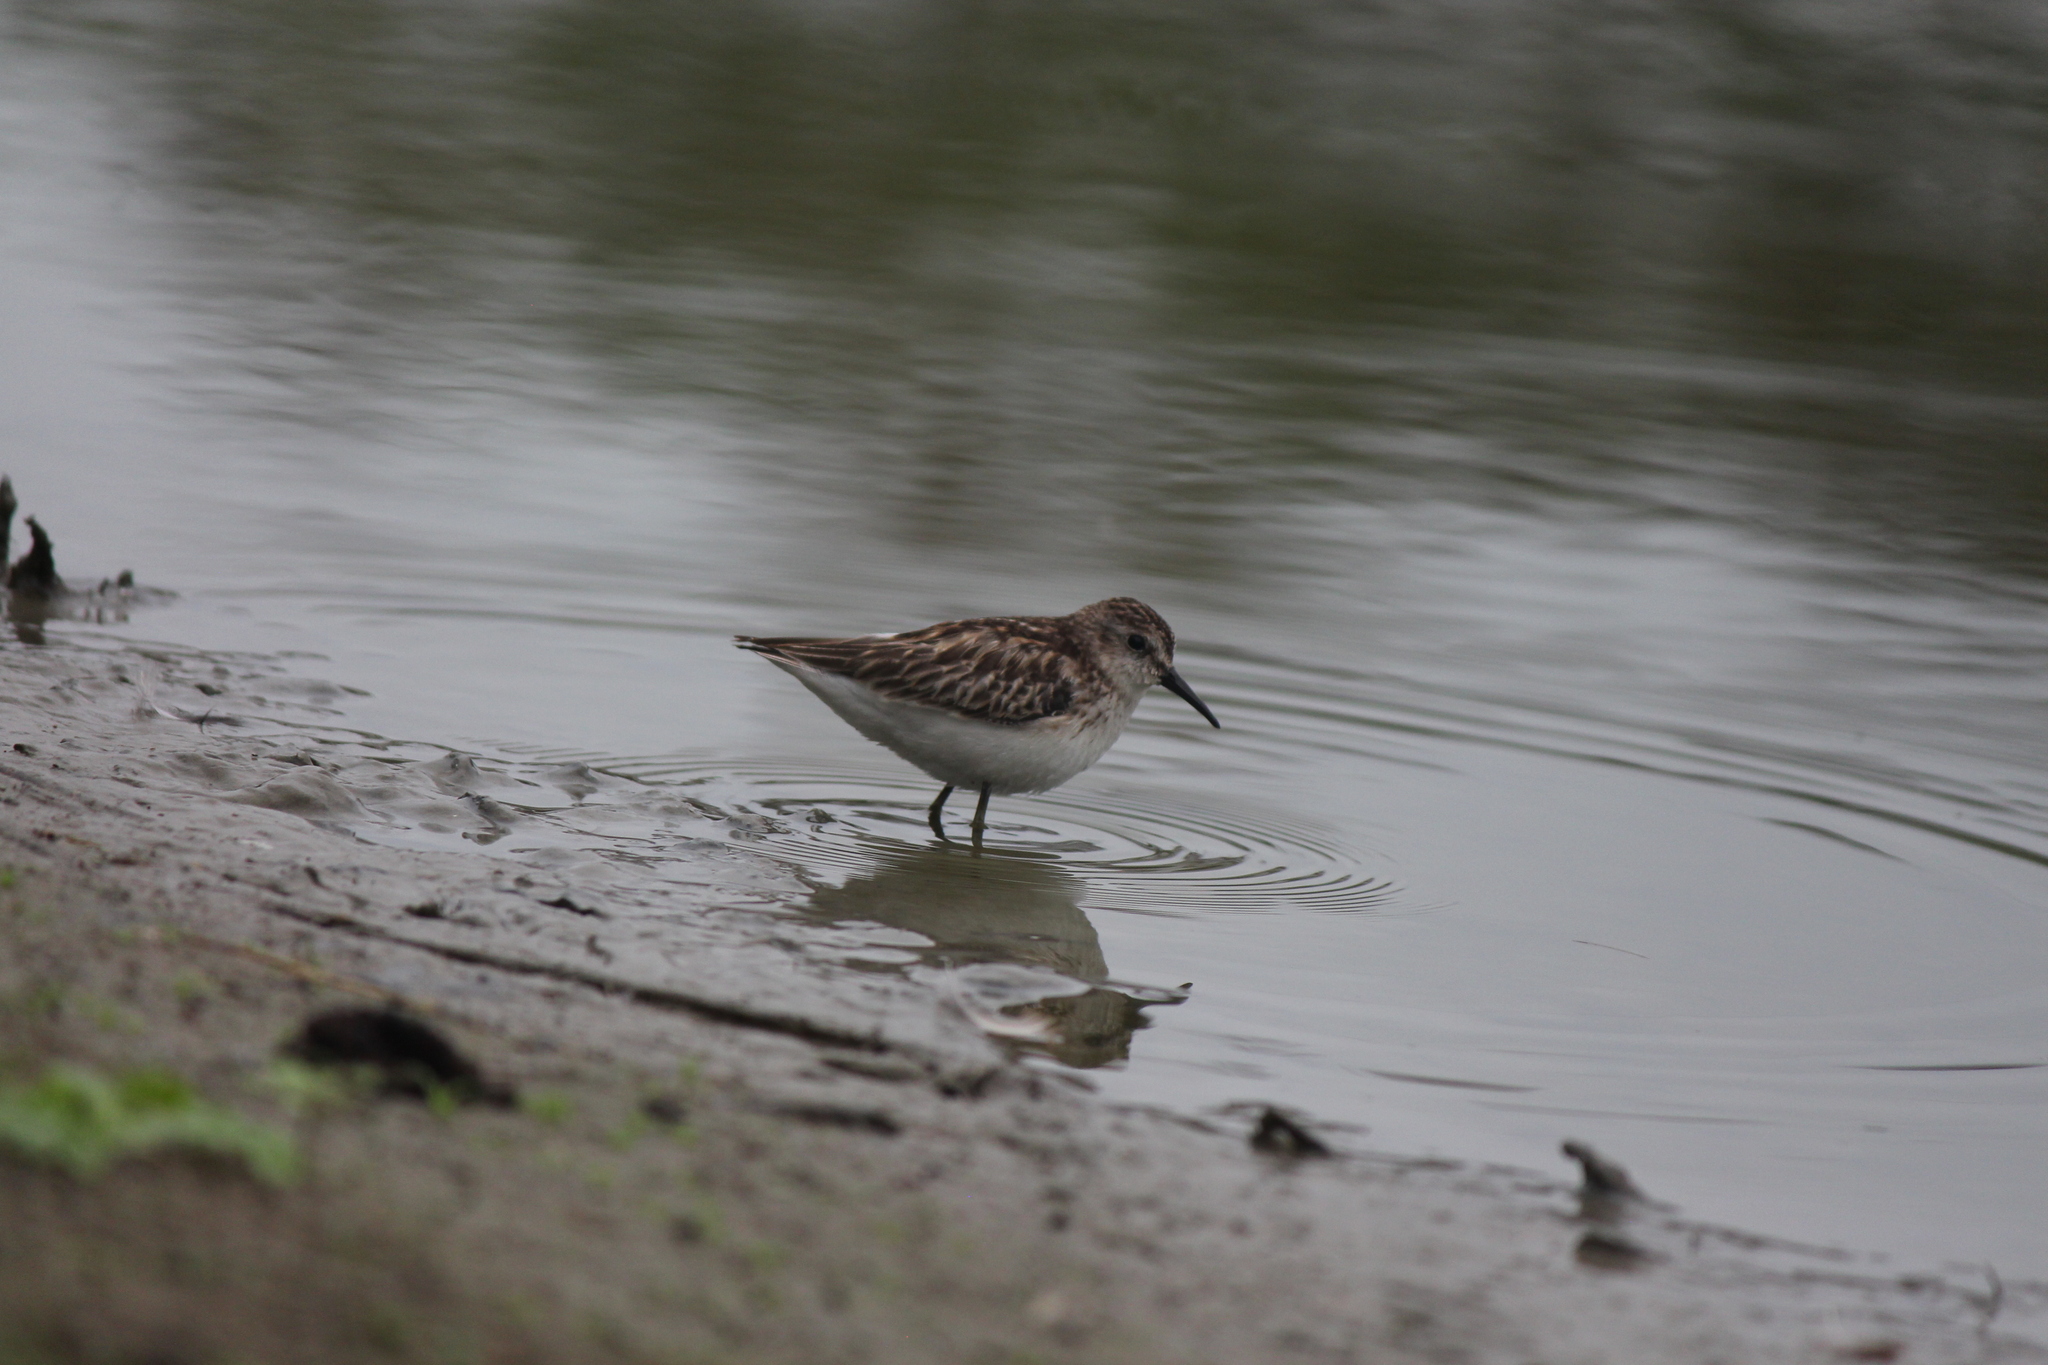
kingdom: Animalia
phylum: Chordata
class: Aves
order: Charadriiformes
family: Scolopacidae
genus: Calidris
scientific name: Calidris minutilla
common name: Least sandpiper
